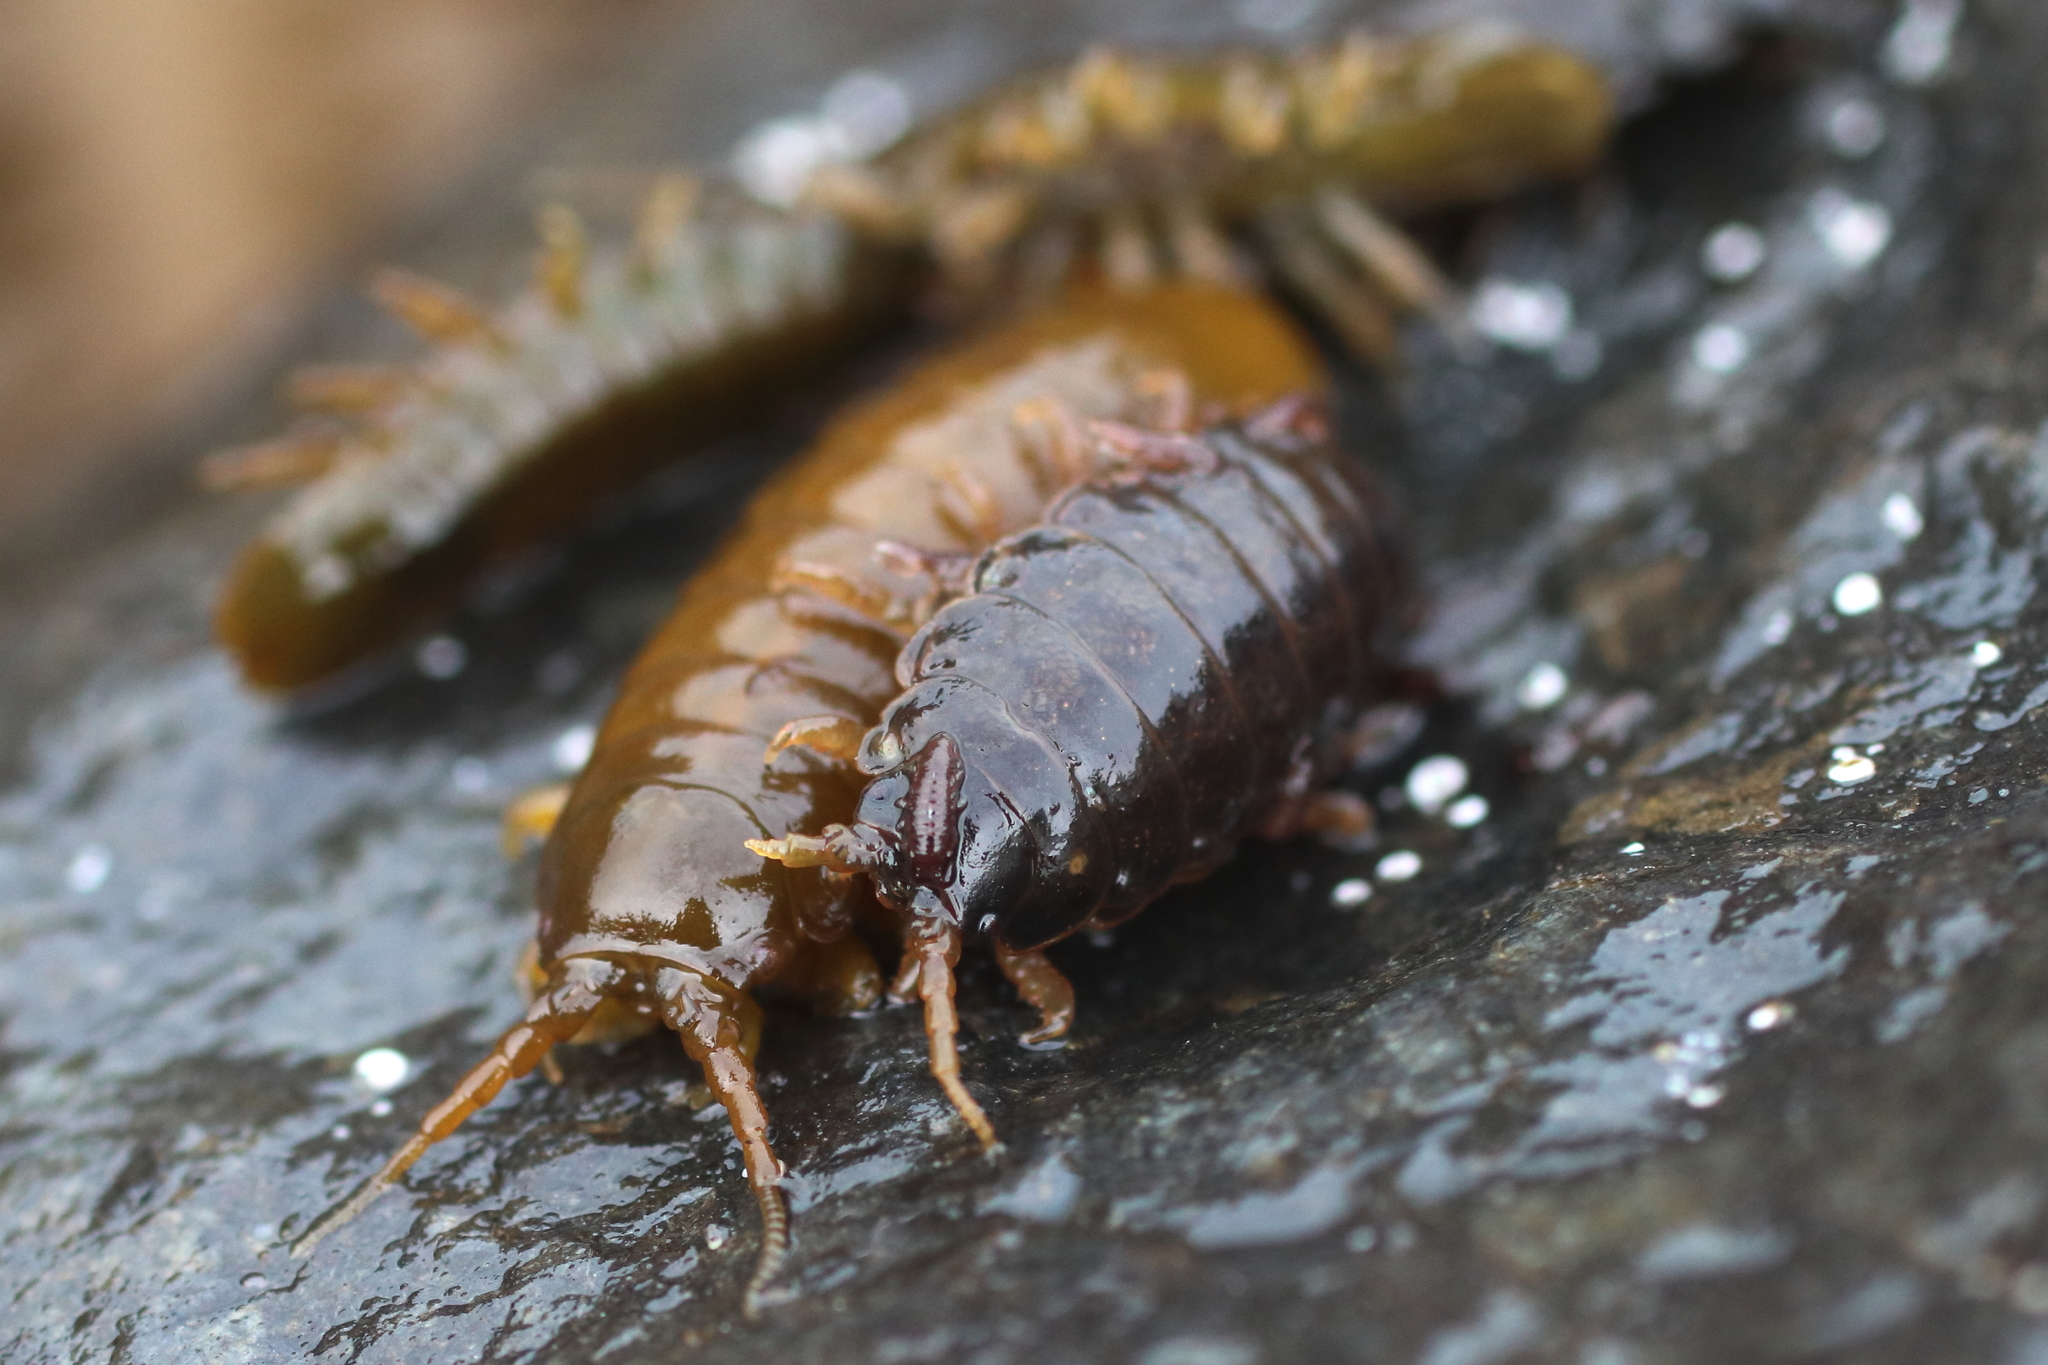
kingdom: Animalia
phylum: Arthropoda
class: Malacostraca
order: Isopoda
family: Idoteidae
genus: Pentidotea
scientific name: Pentidotea wosnesenskii
